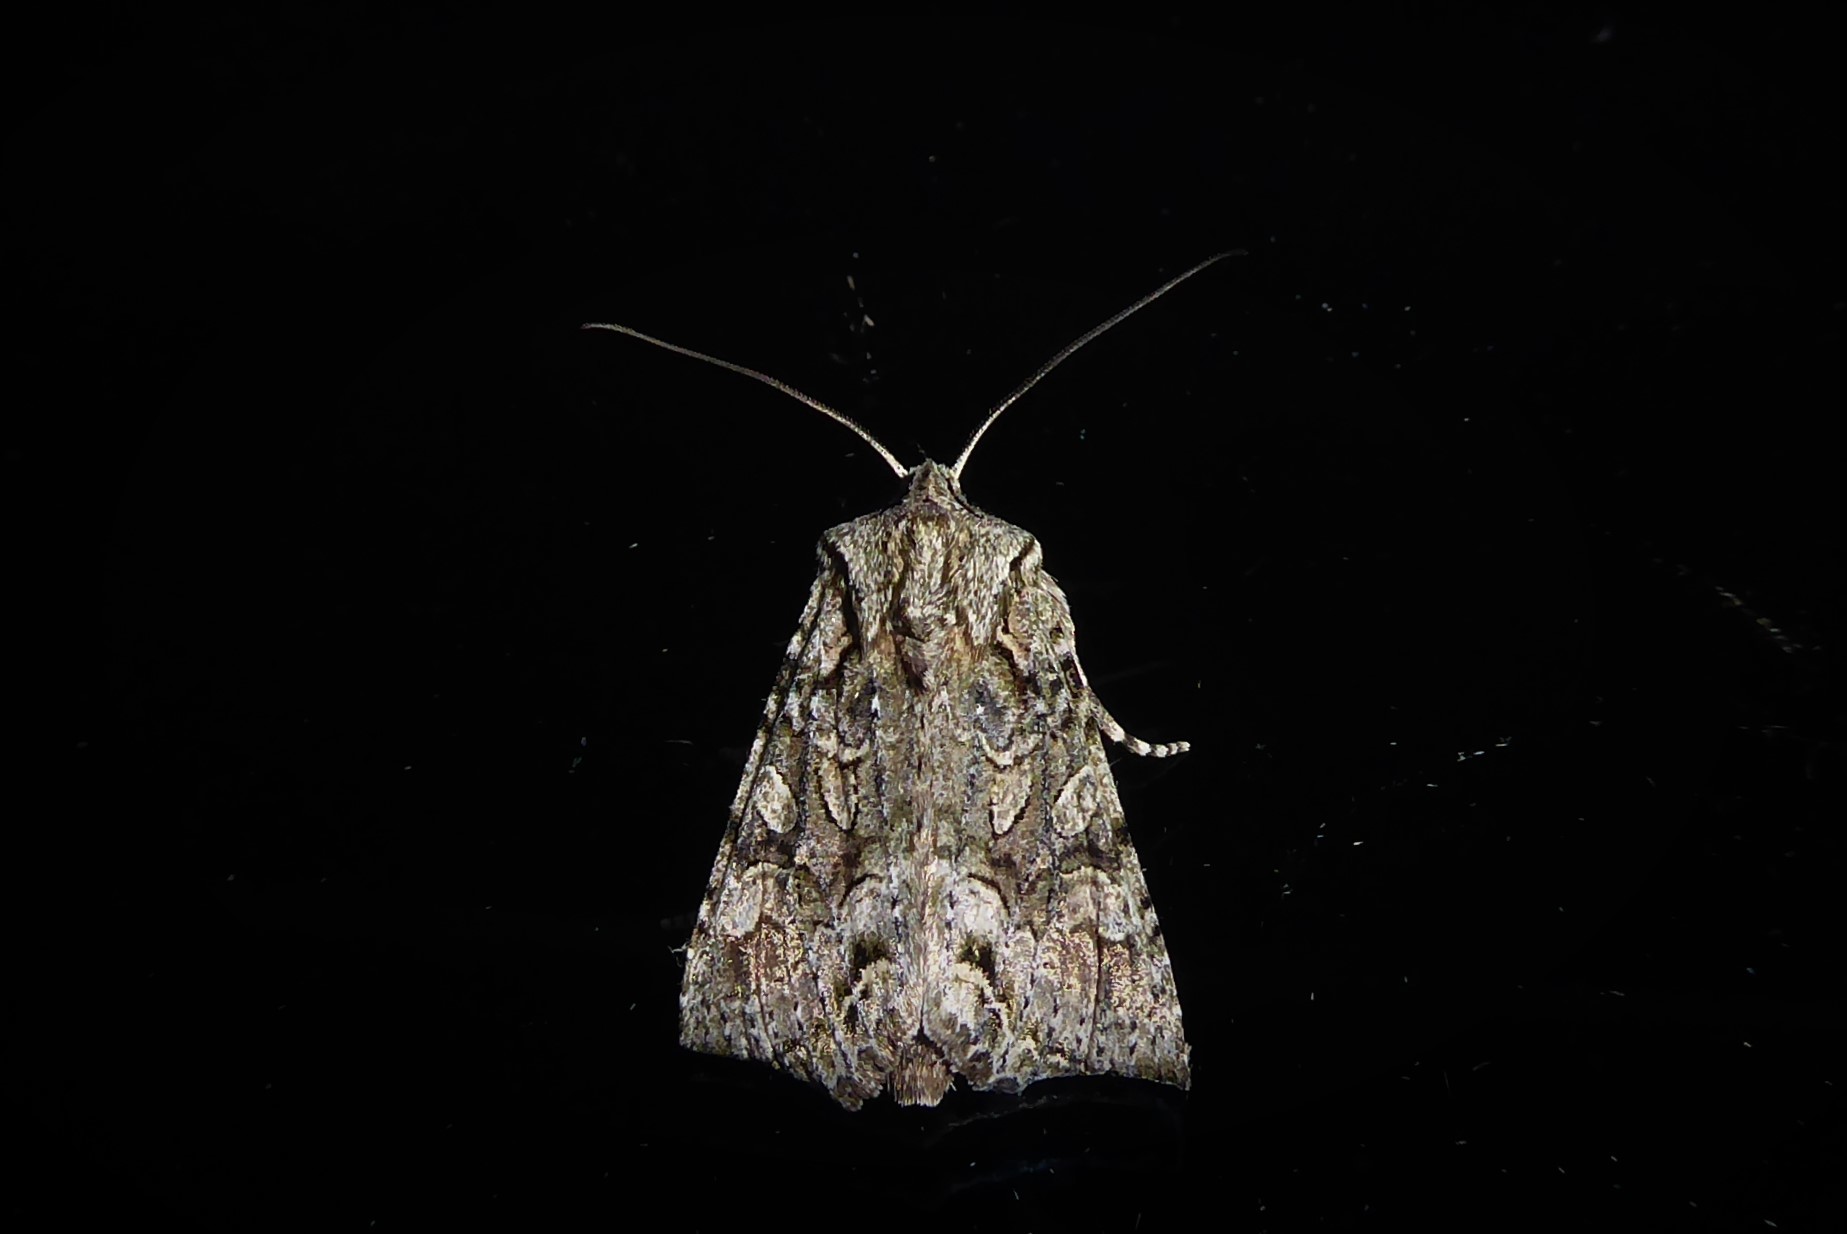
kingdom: Animalia
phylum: Arthropoda
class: Insecta
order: Lepidoptera
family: Noctuidae
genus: Ichneutica
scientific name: Ichneutica mutans
